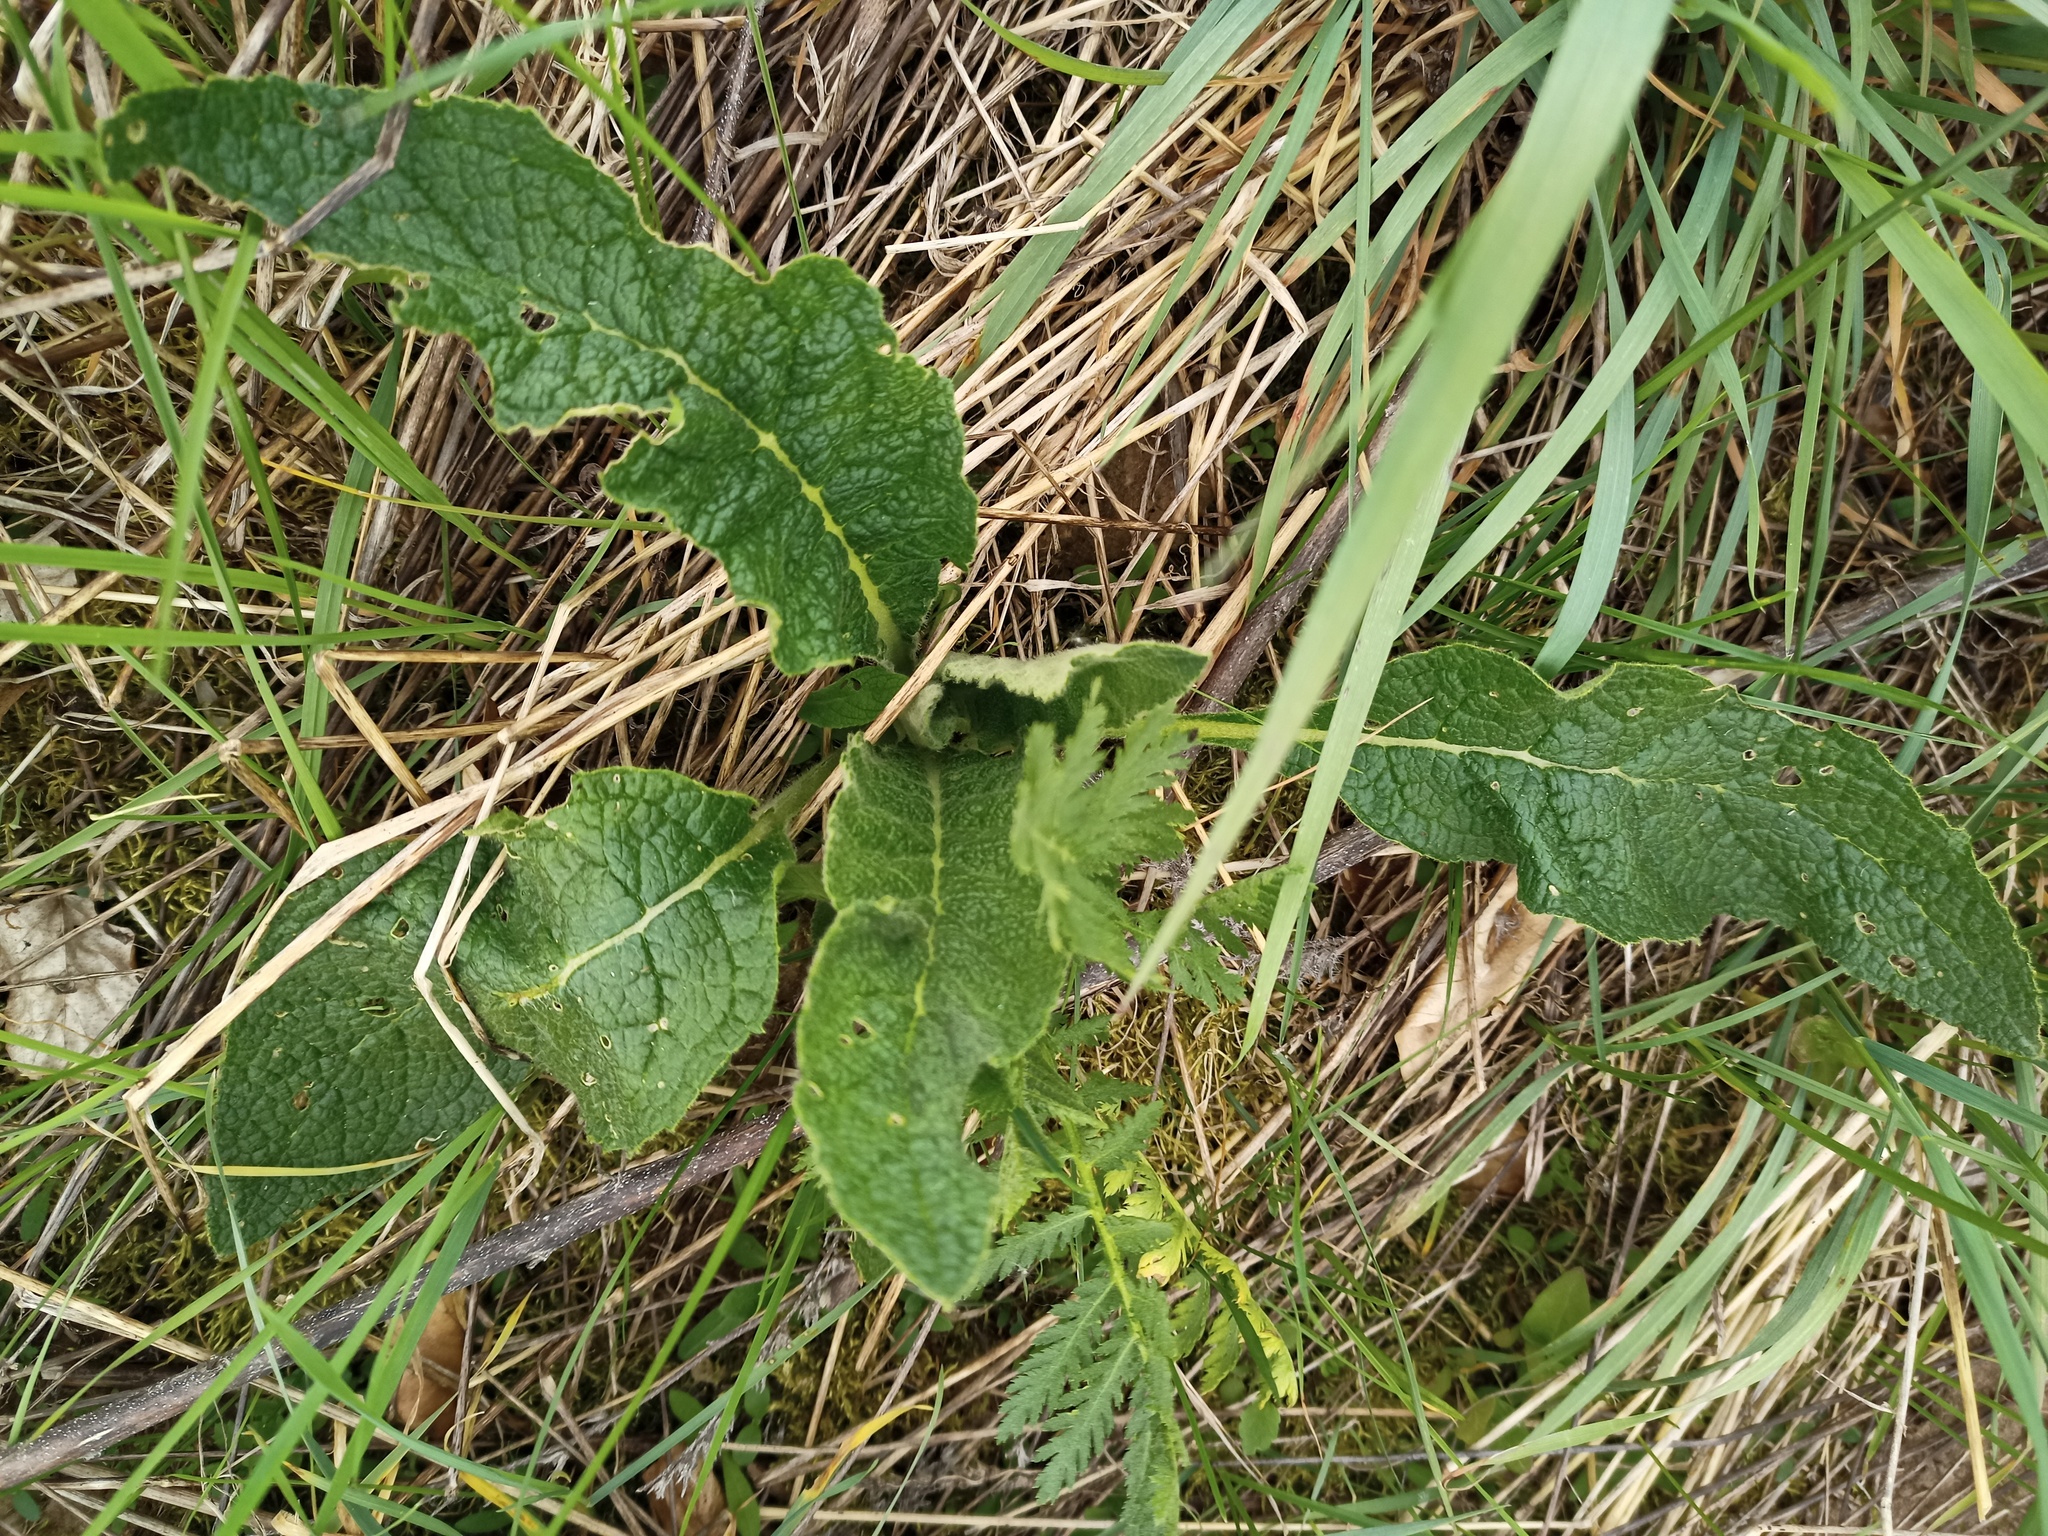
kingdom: Plantae
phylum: Tracheophyta
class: Magnoliopsida
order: Lamiales
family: Scrophulariaceae
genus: Verbascum
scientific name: Verbascum nigrum
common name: Dark mullein
